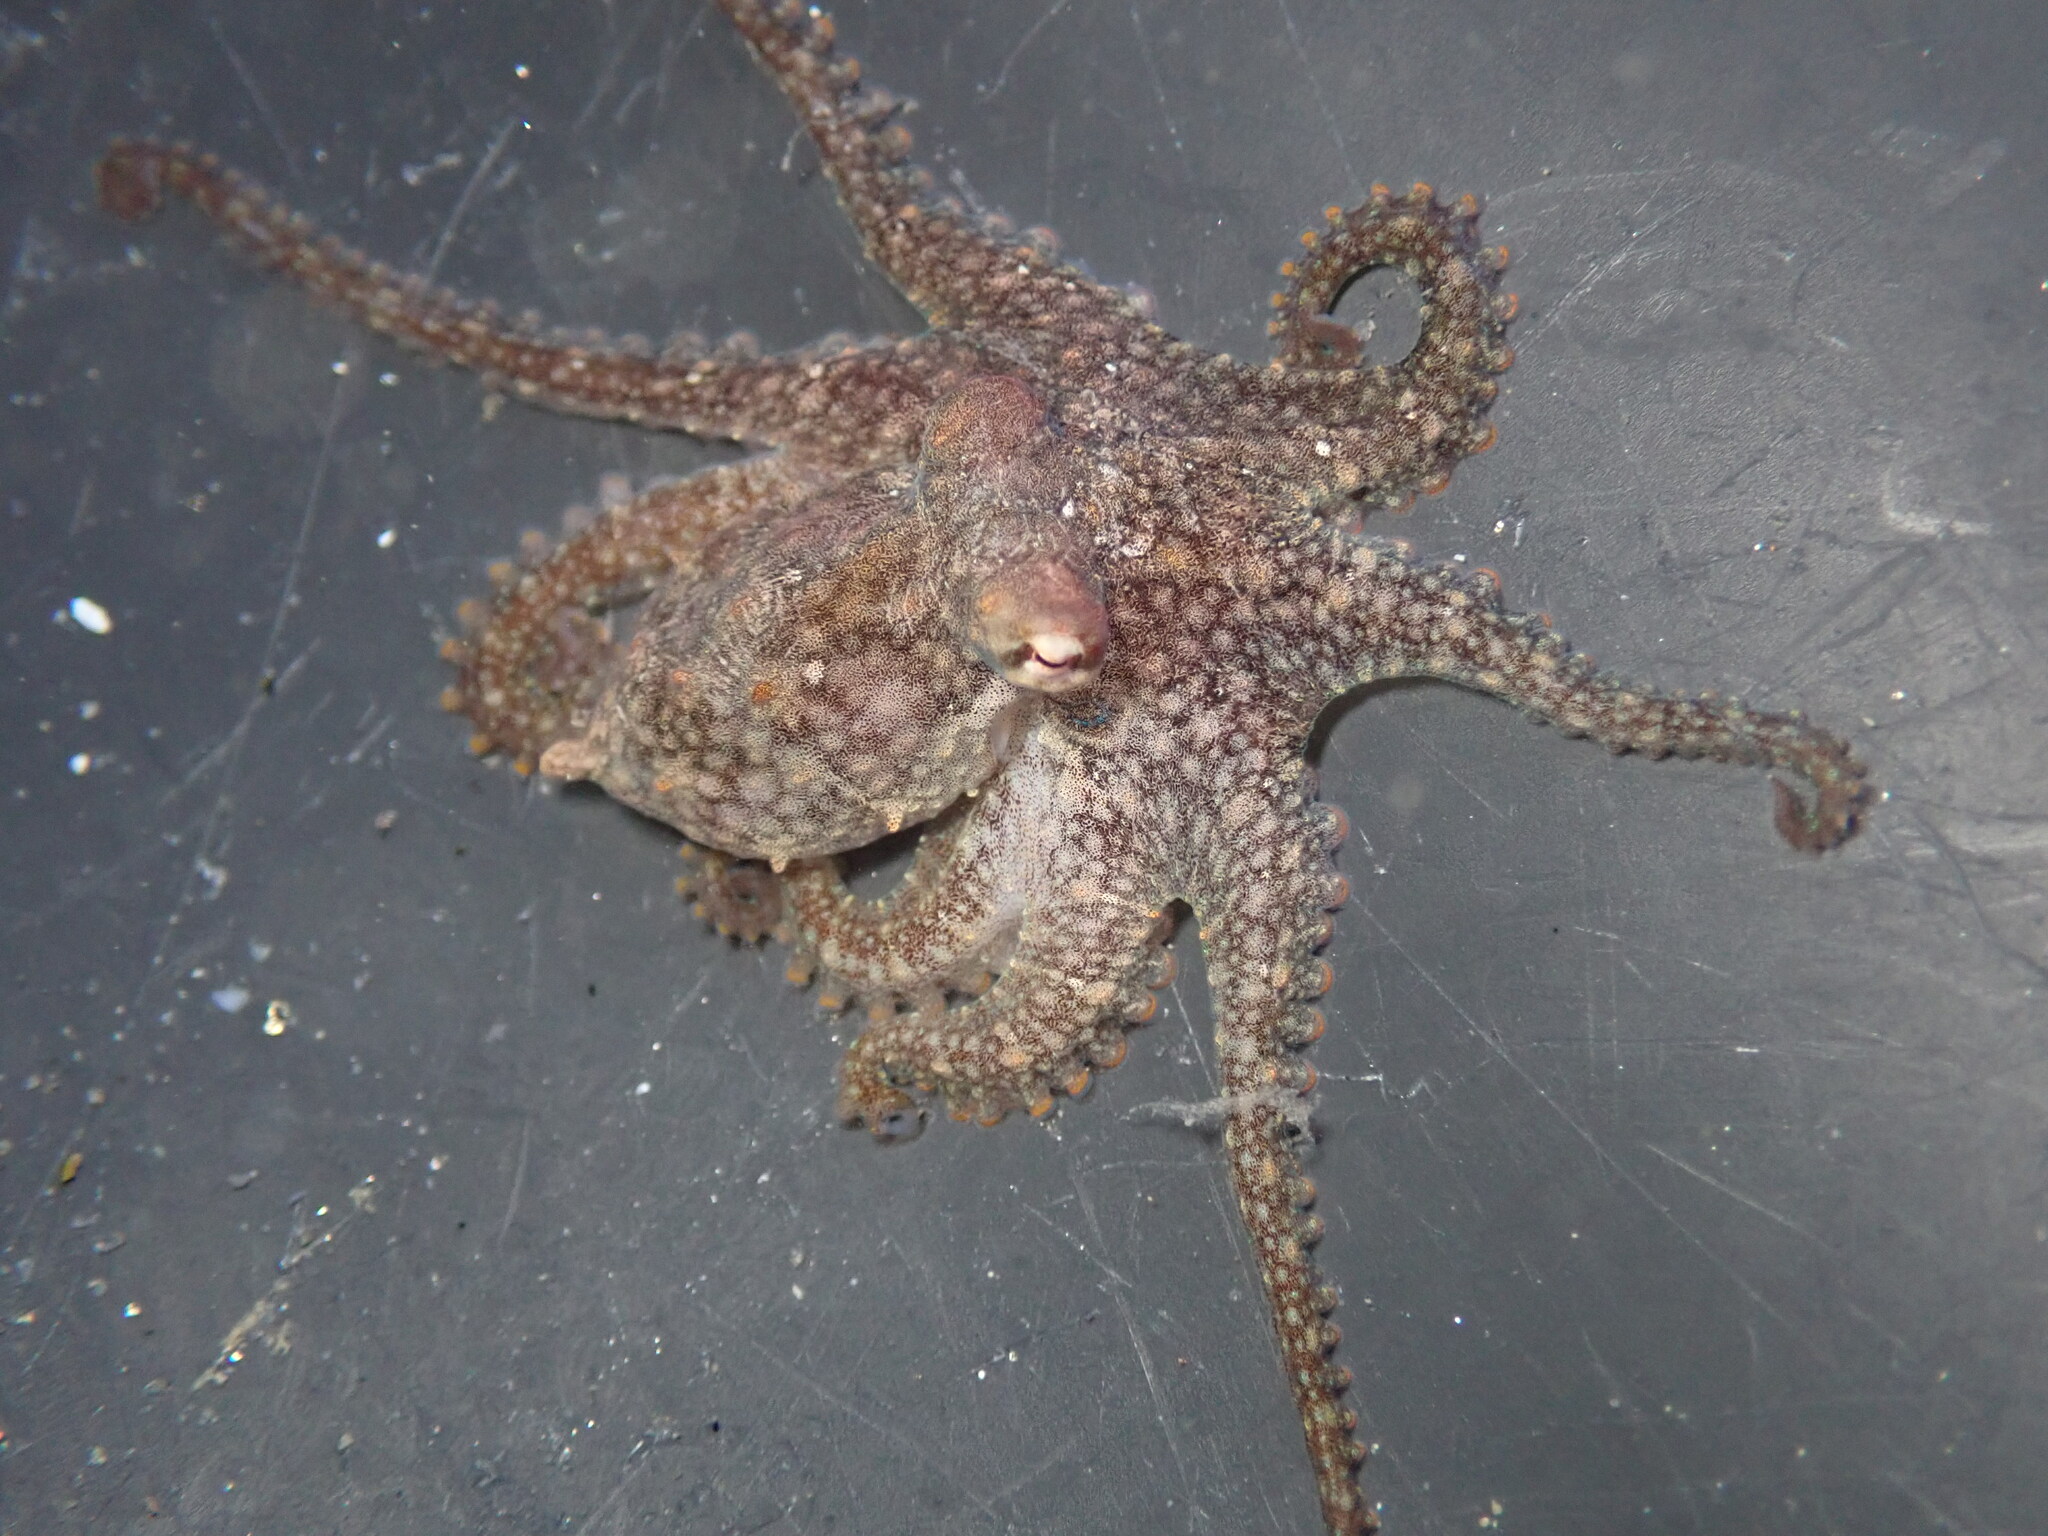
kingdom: Animalia
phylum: Mollusca
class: Cephalopoda
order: Octopoda
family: Octopodidae
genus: Octopus
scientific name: Octopus bimaculoides
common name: California two-spot octopus
